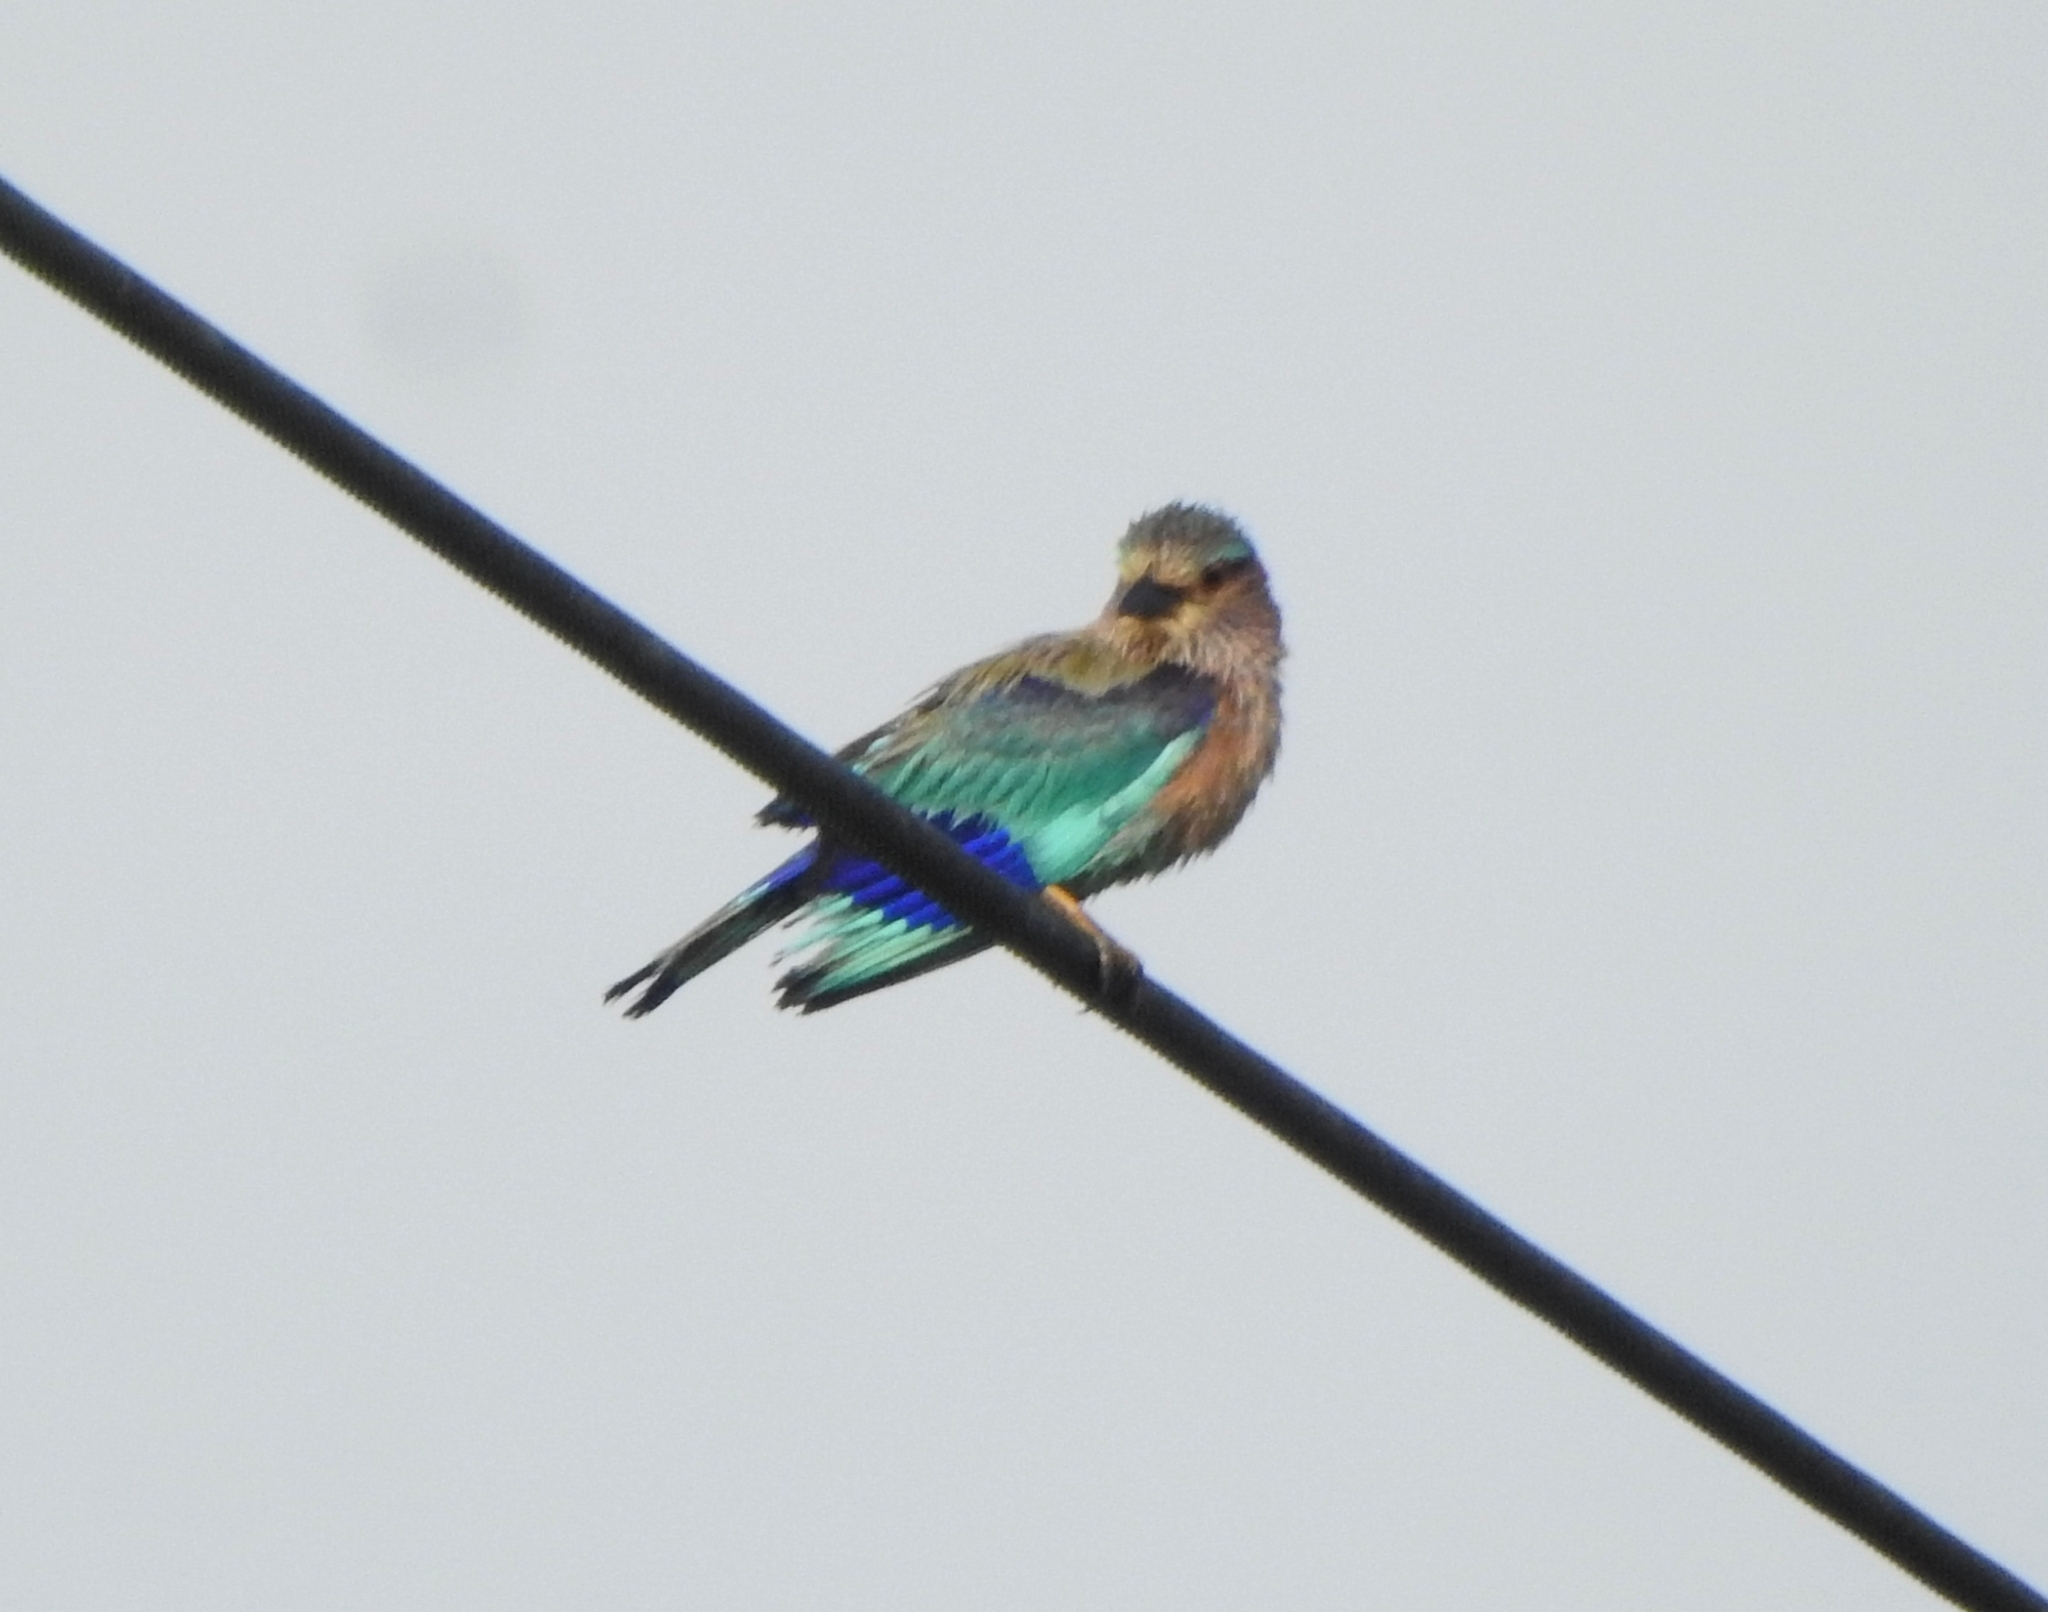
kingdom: Animalia
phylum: Chordata
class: Aves
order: Coraciiformes
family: Coraciidae
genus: Coracias
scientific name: Coracias benghalensis
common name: Indian roller
